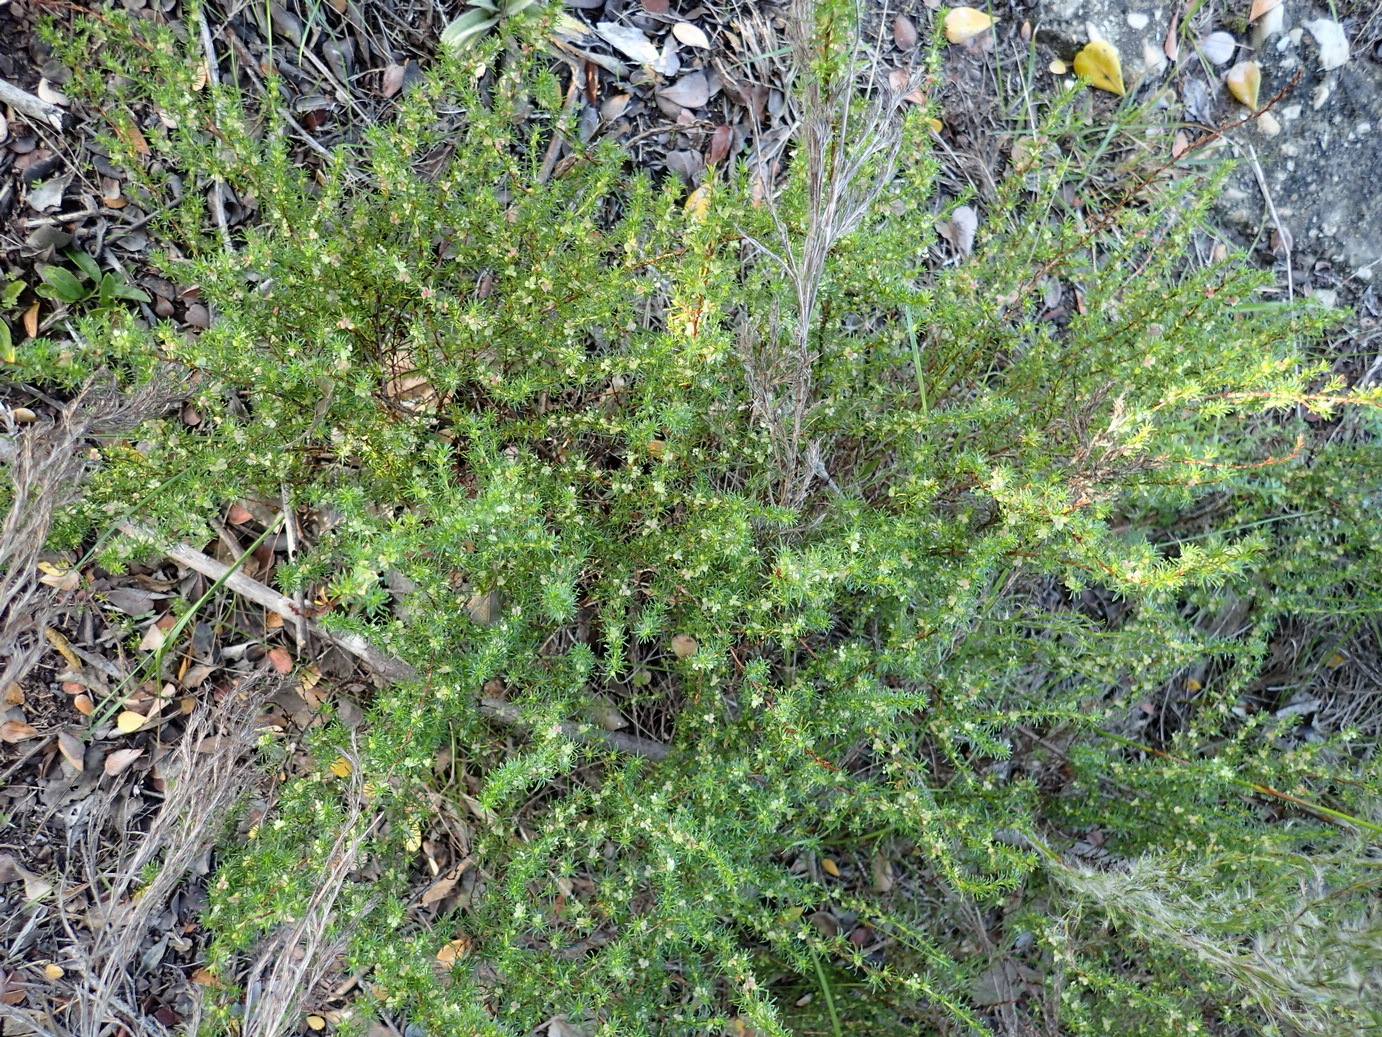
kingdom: Plantae
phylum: Tracheophyta
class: Magnoliopsida
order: Rosales
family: Rosaceae
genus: Cliffortia
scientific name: Cliffortia filifolia
